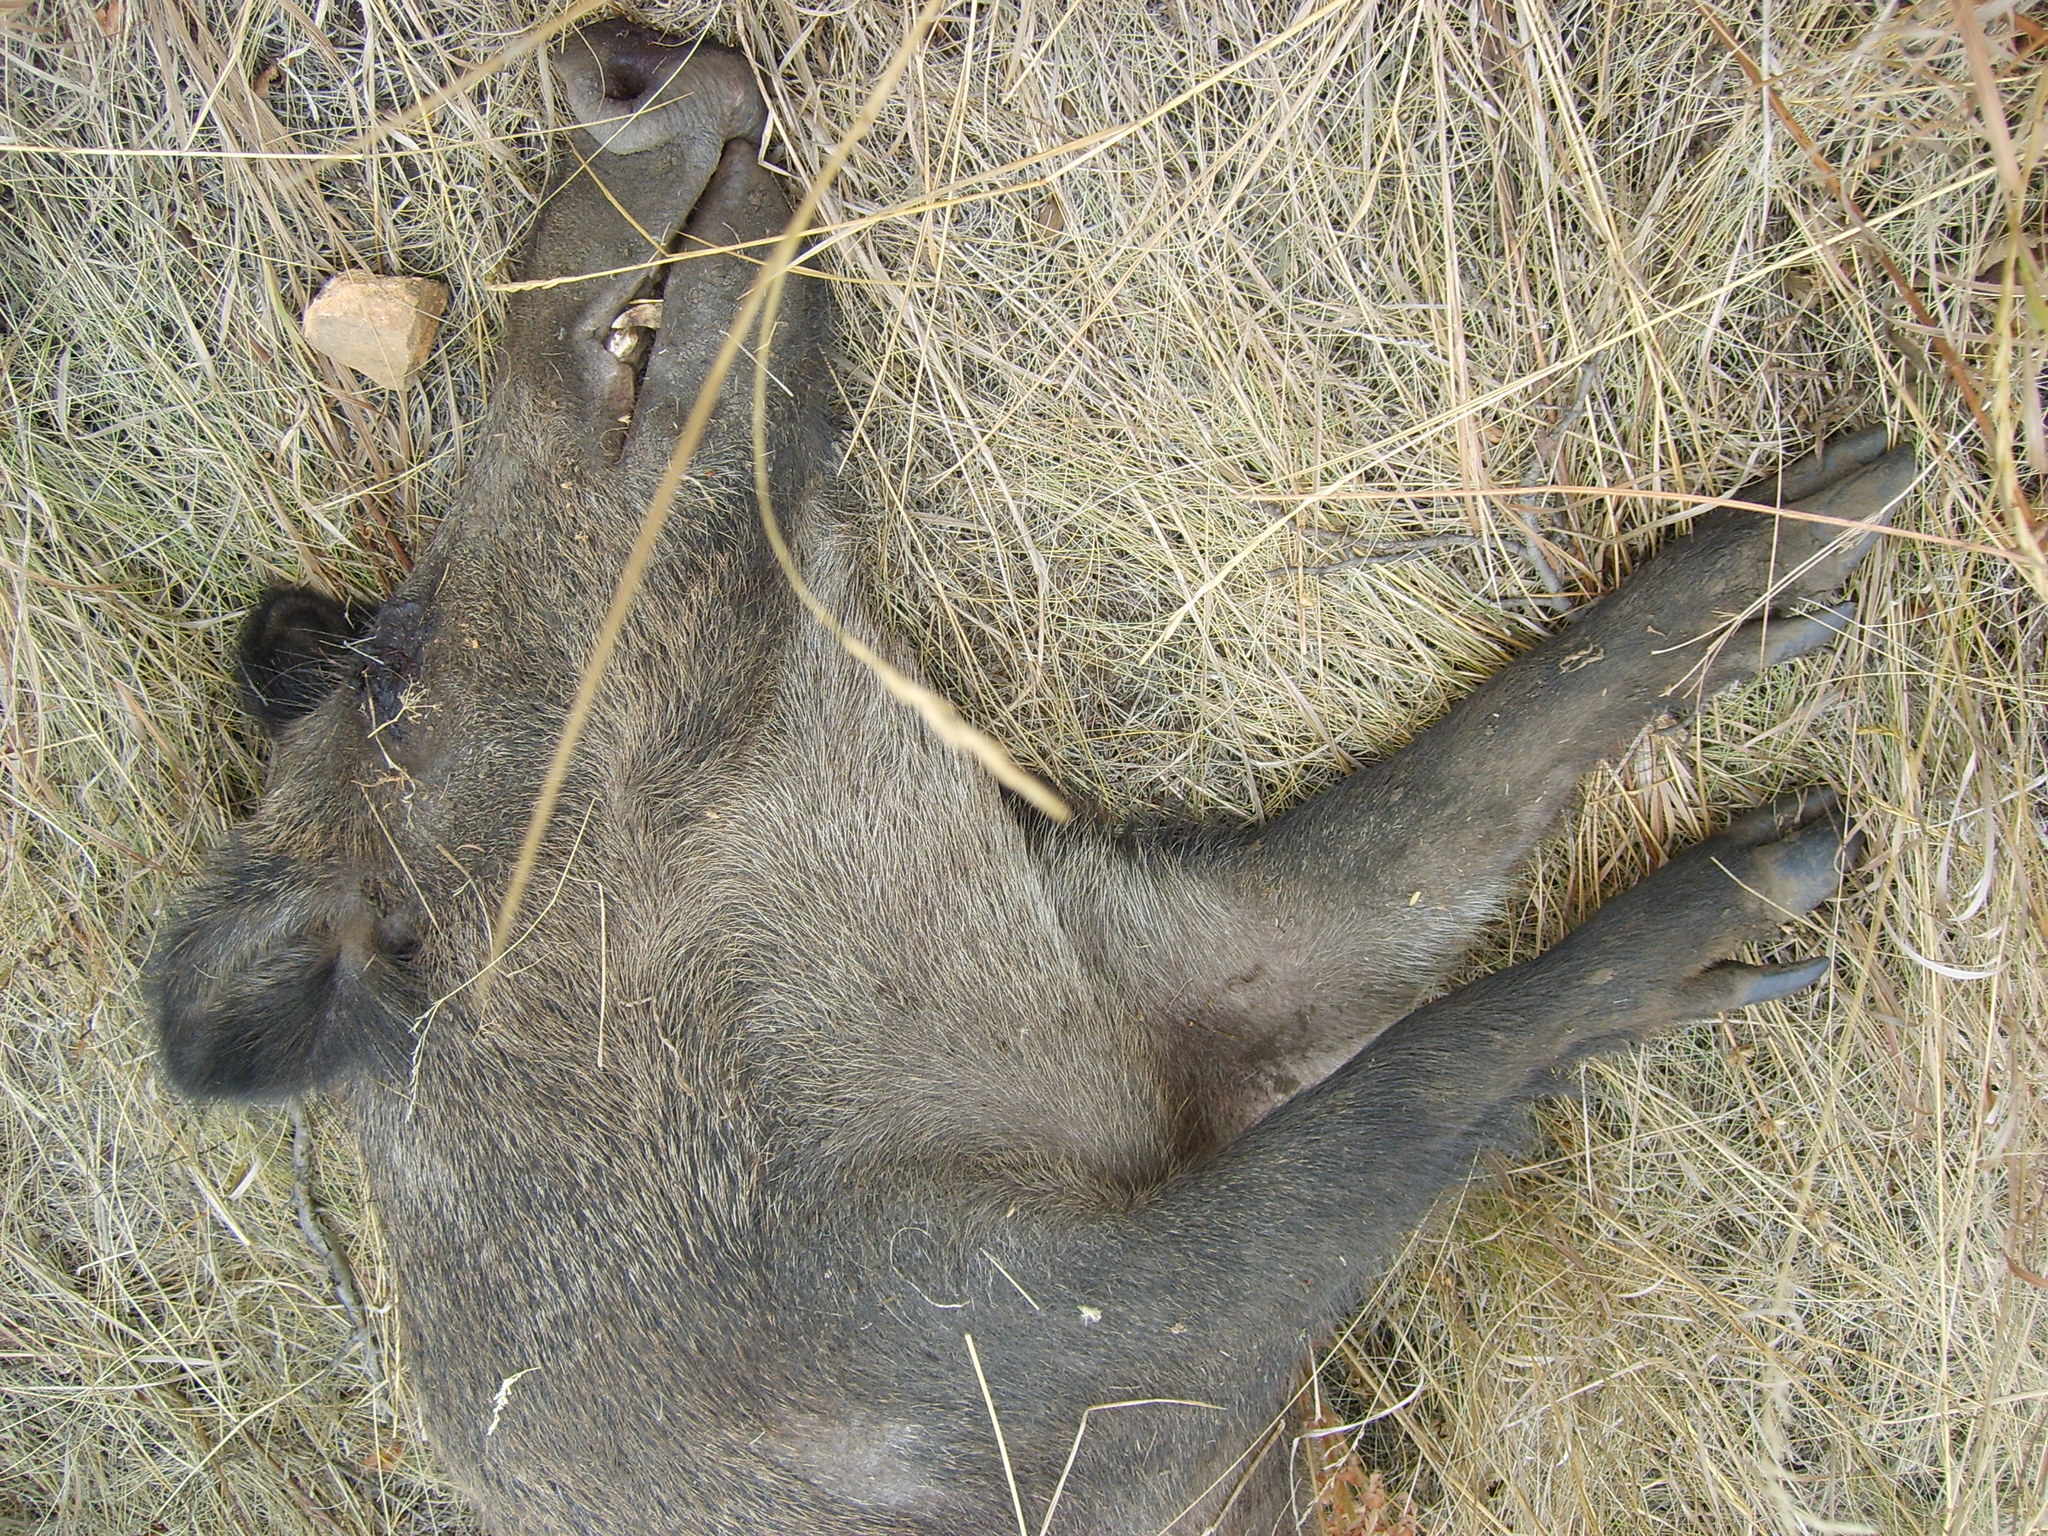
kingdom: Animalia
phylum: Chordata
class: Mammalia
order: Artiodactyla
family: Suidae
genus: Sus
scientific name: Sus scrofa
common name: Wild boar
